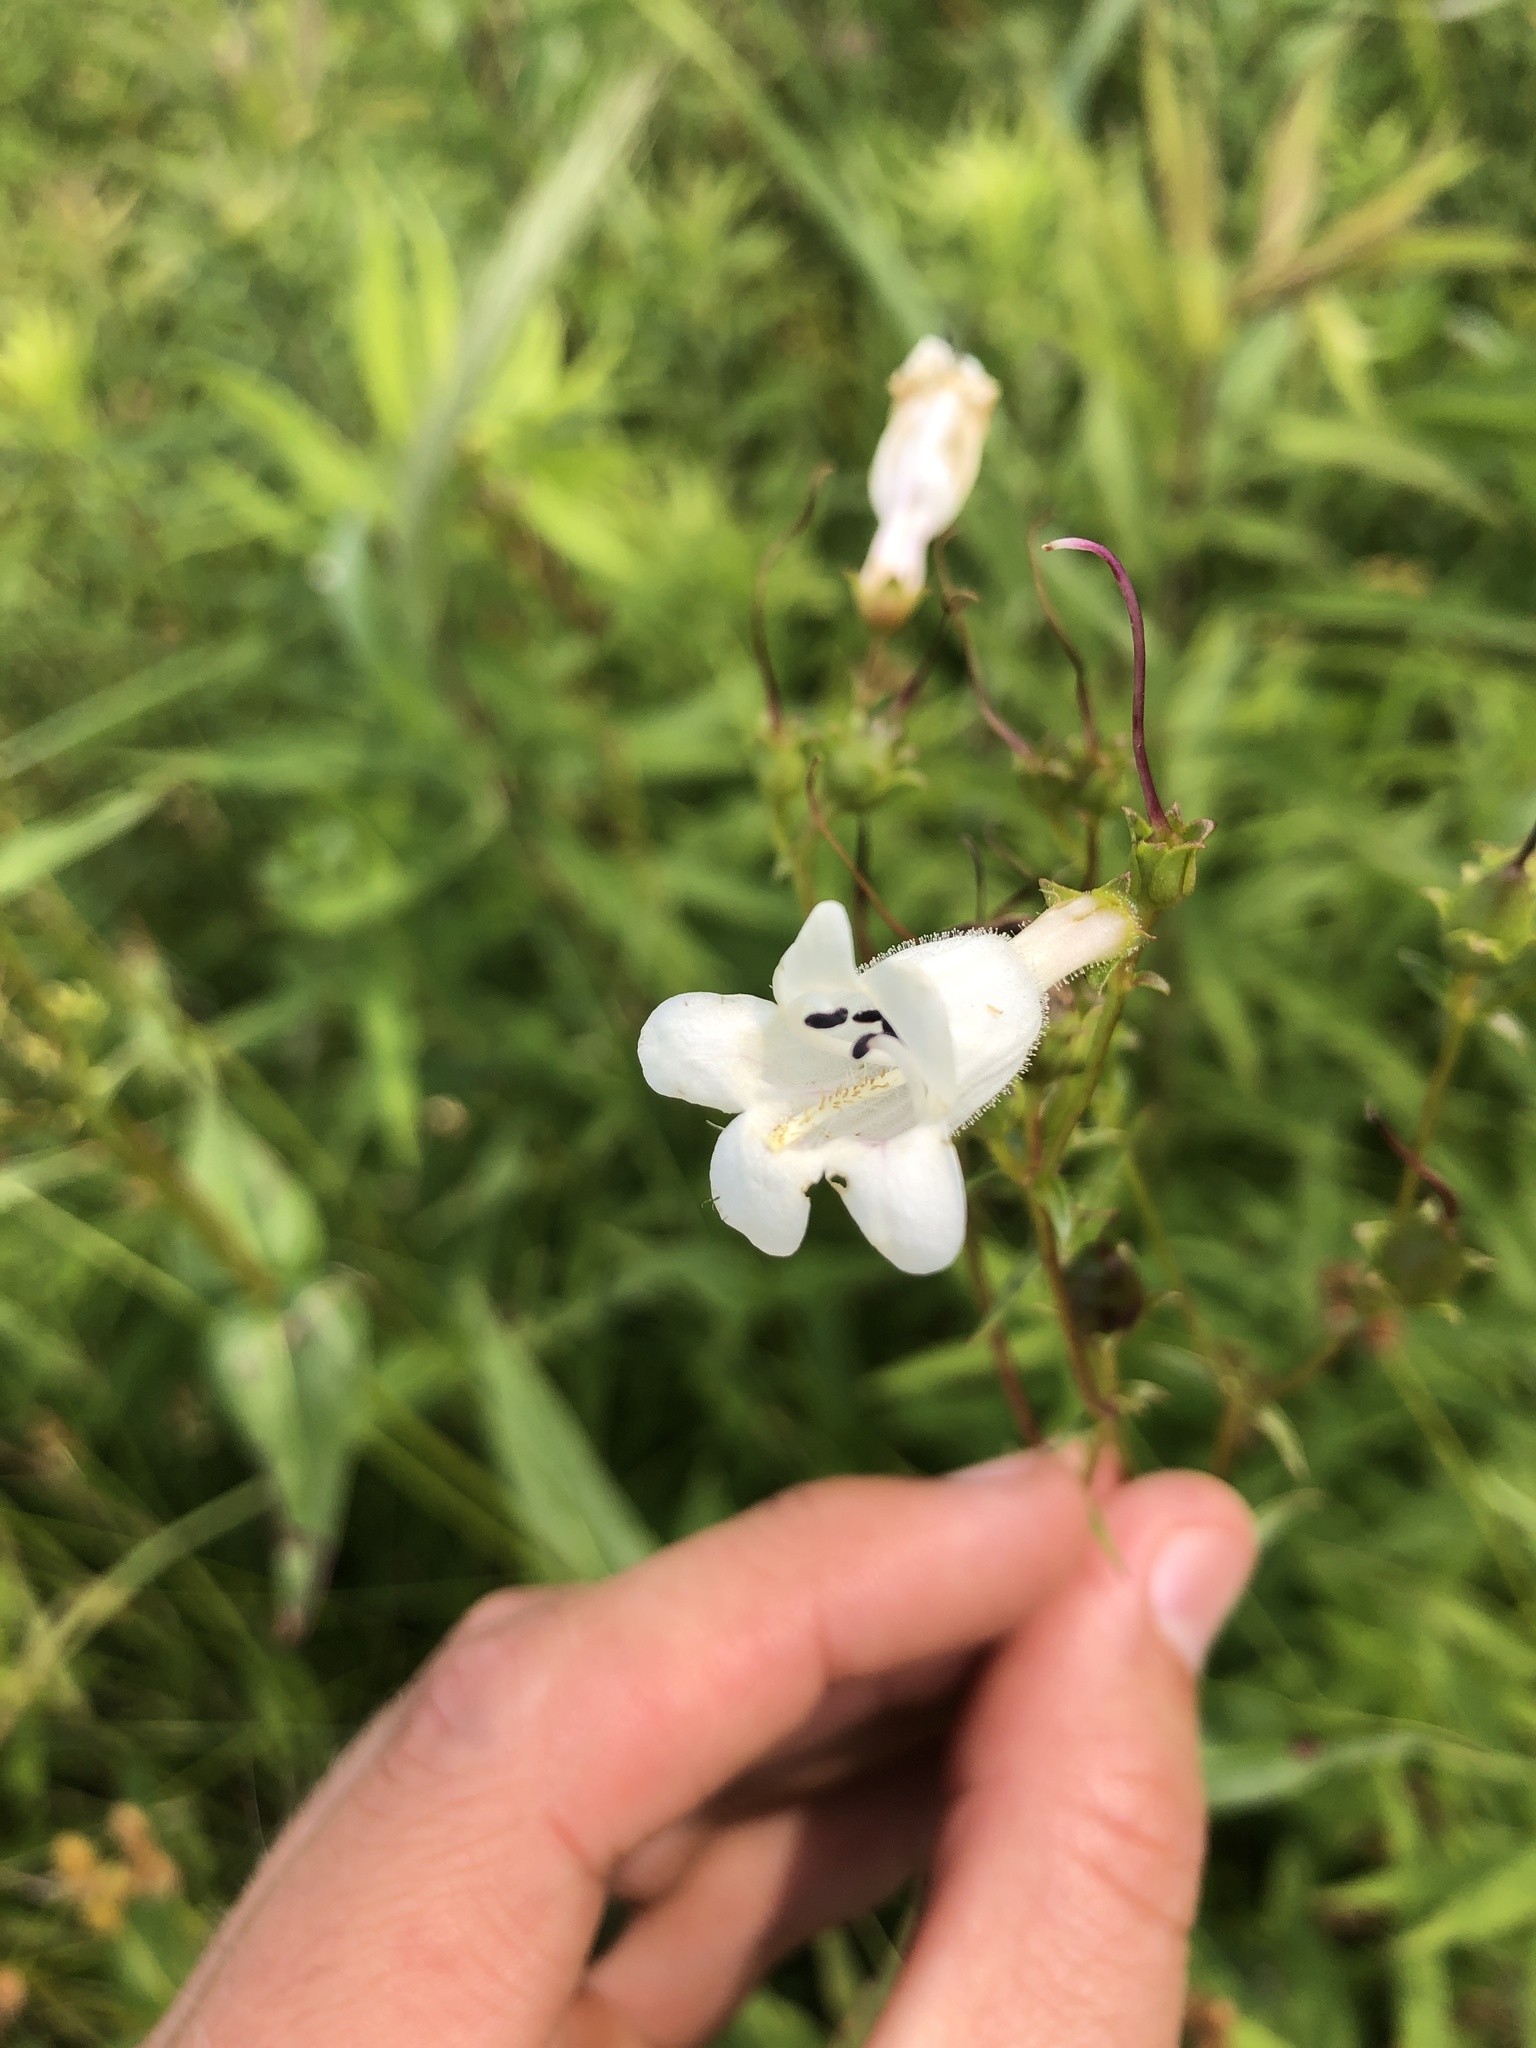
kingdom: Plantae
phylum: Tracheophyta
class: Magnoliopsida
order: Lamiales
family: Plantaginaceae
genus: Penstemon
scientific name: Penstemon digitalis
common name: Foxglove beardtongue
